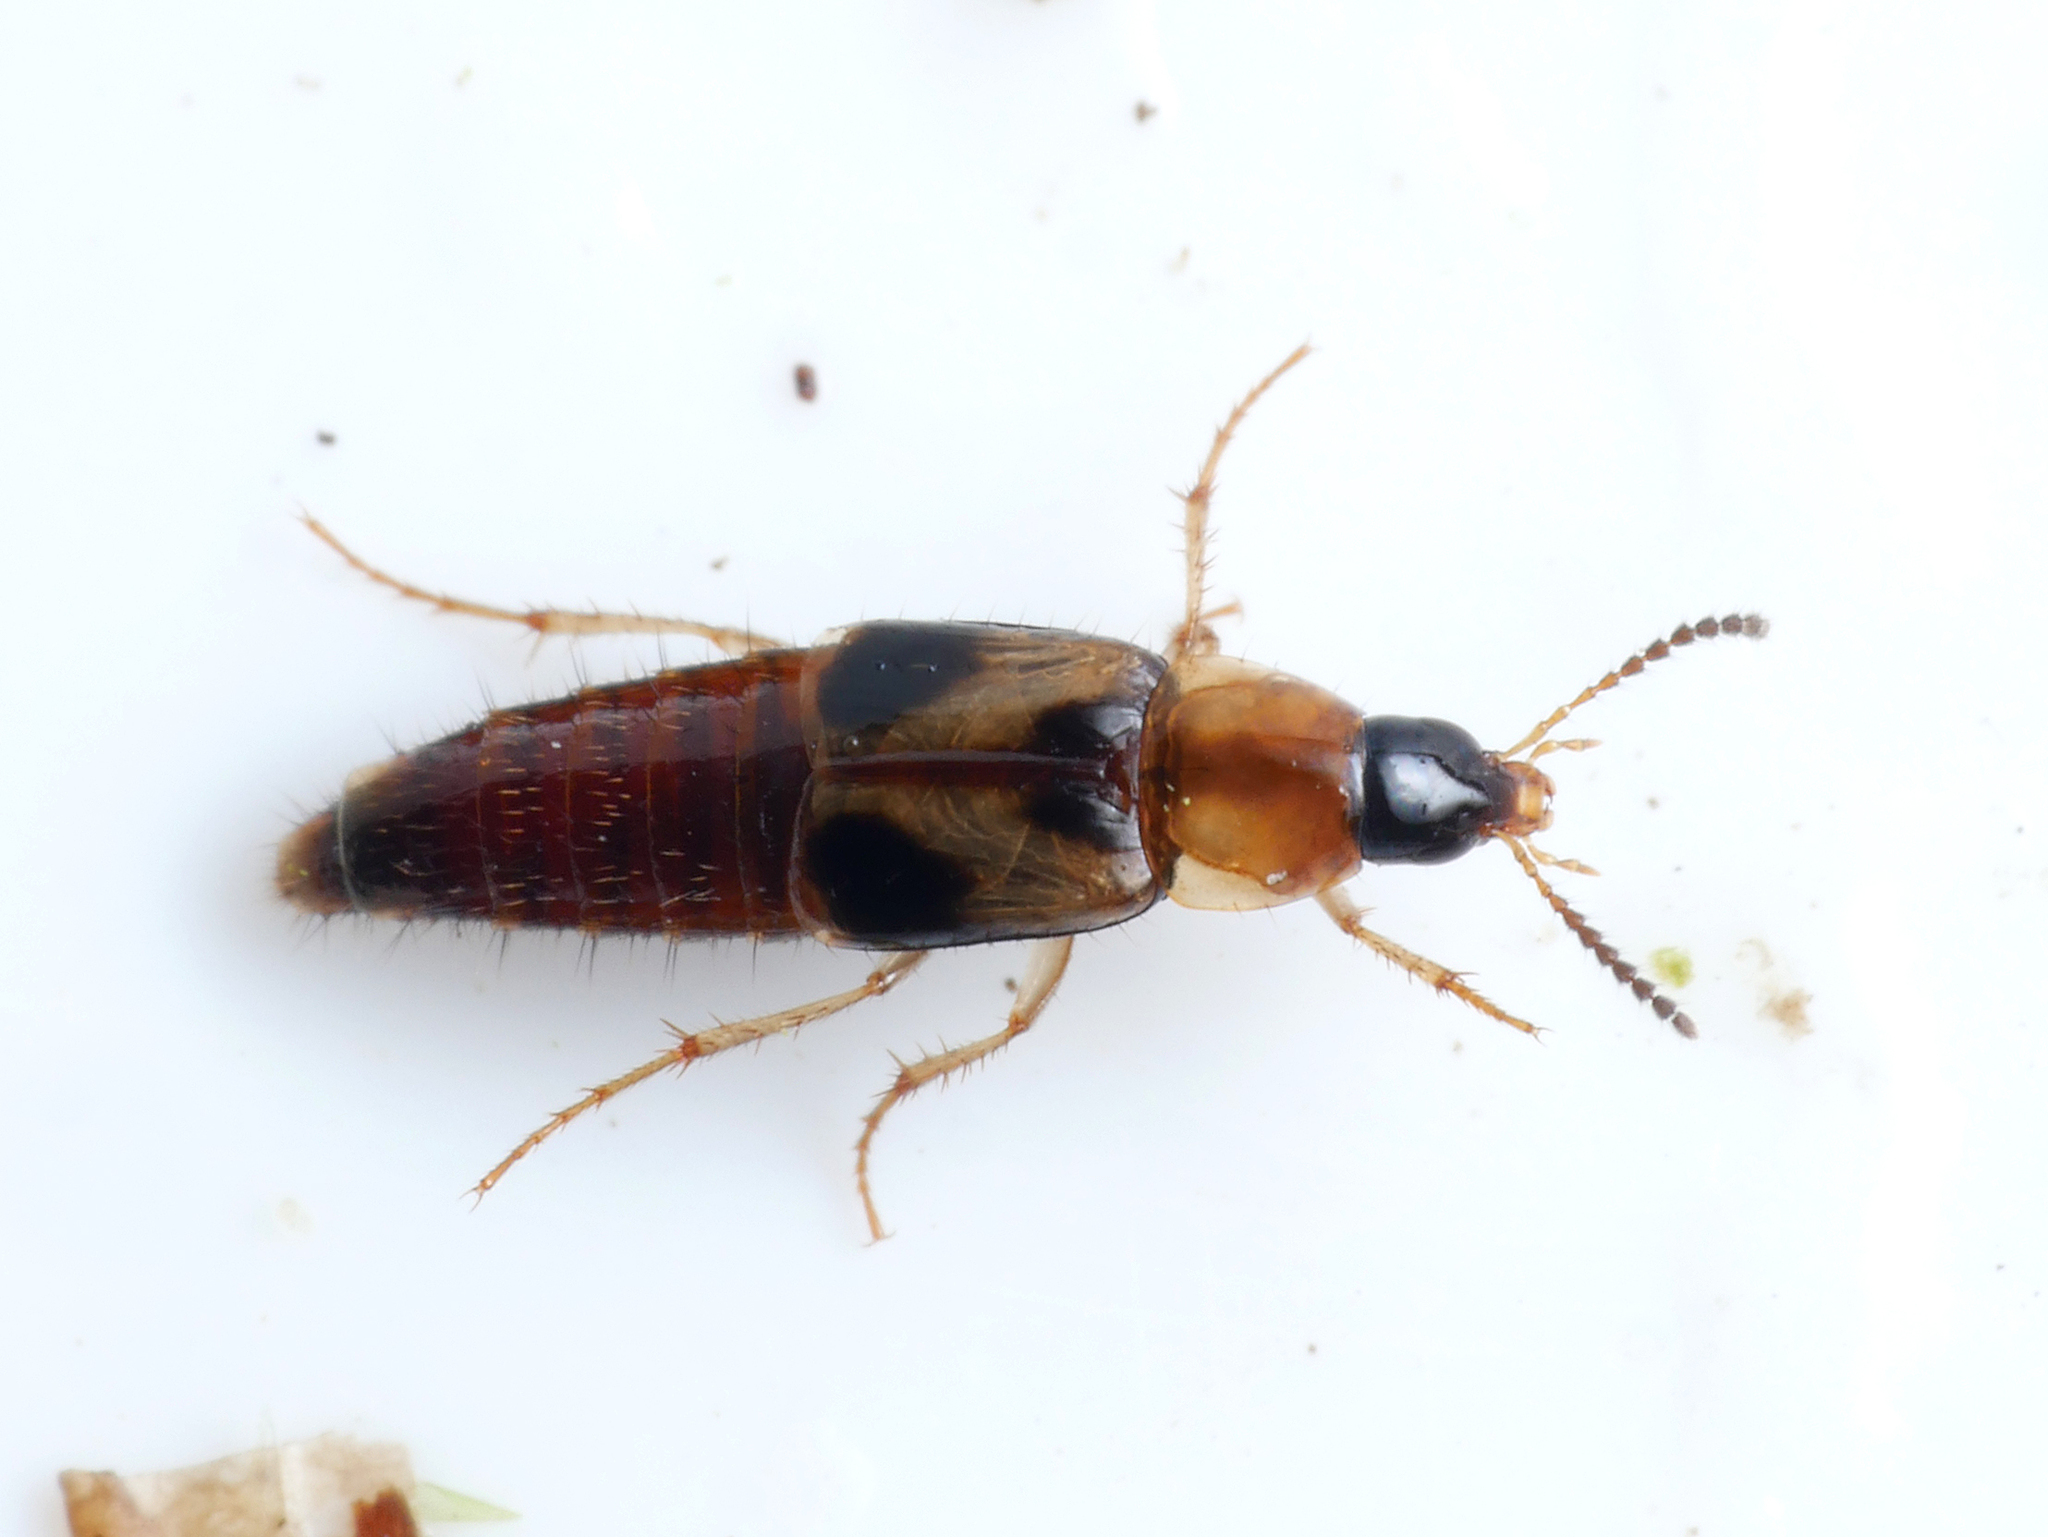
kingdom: Animalia
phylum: Arthropoda
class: Insecta
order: Coleoptera
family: Staphylinidae
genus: Lordithon
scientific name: Lordithon trinotatus
